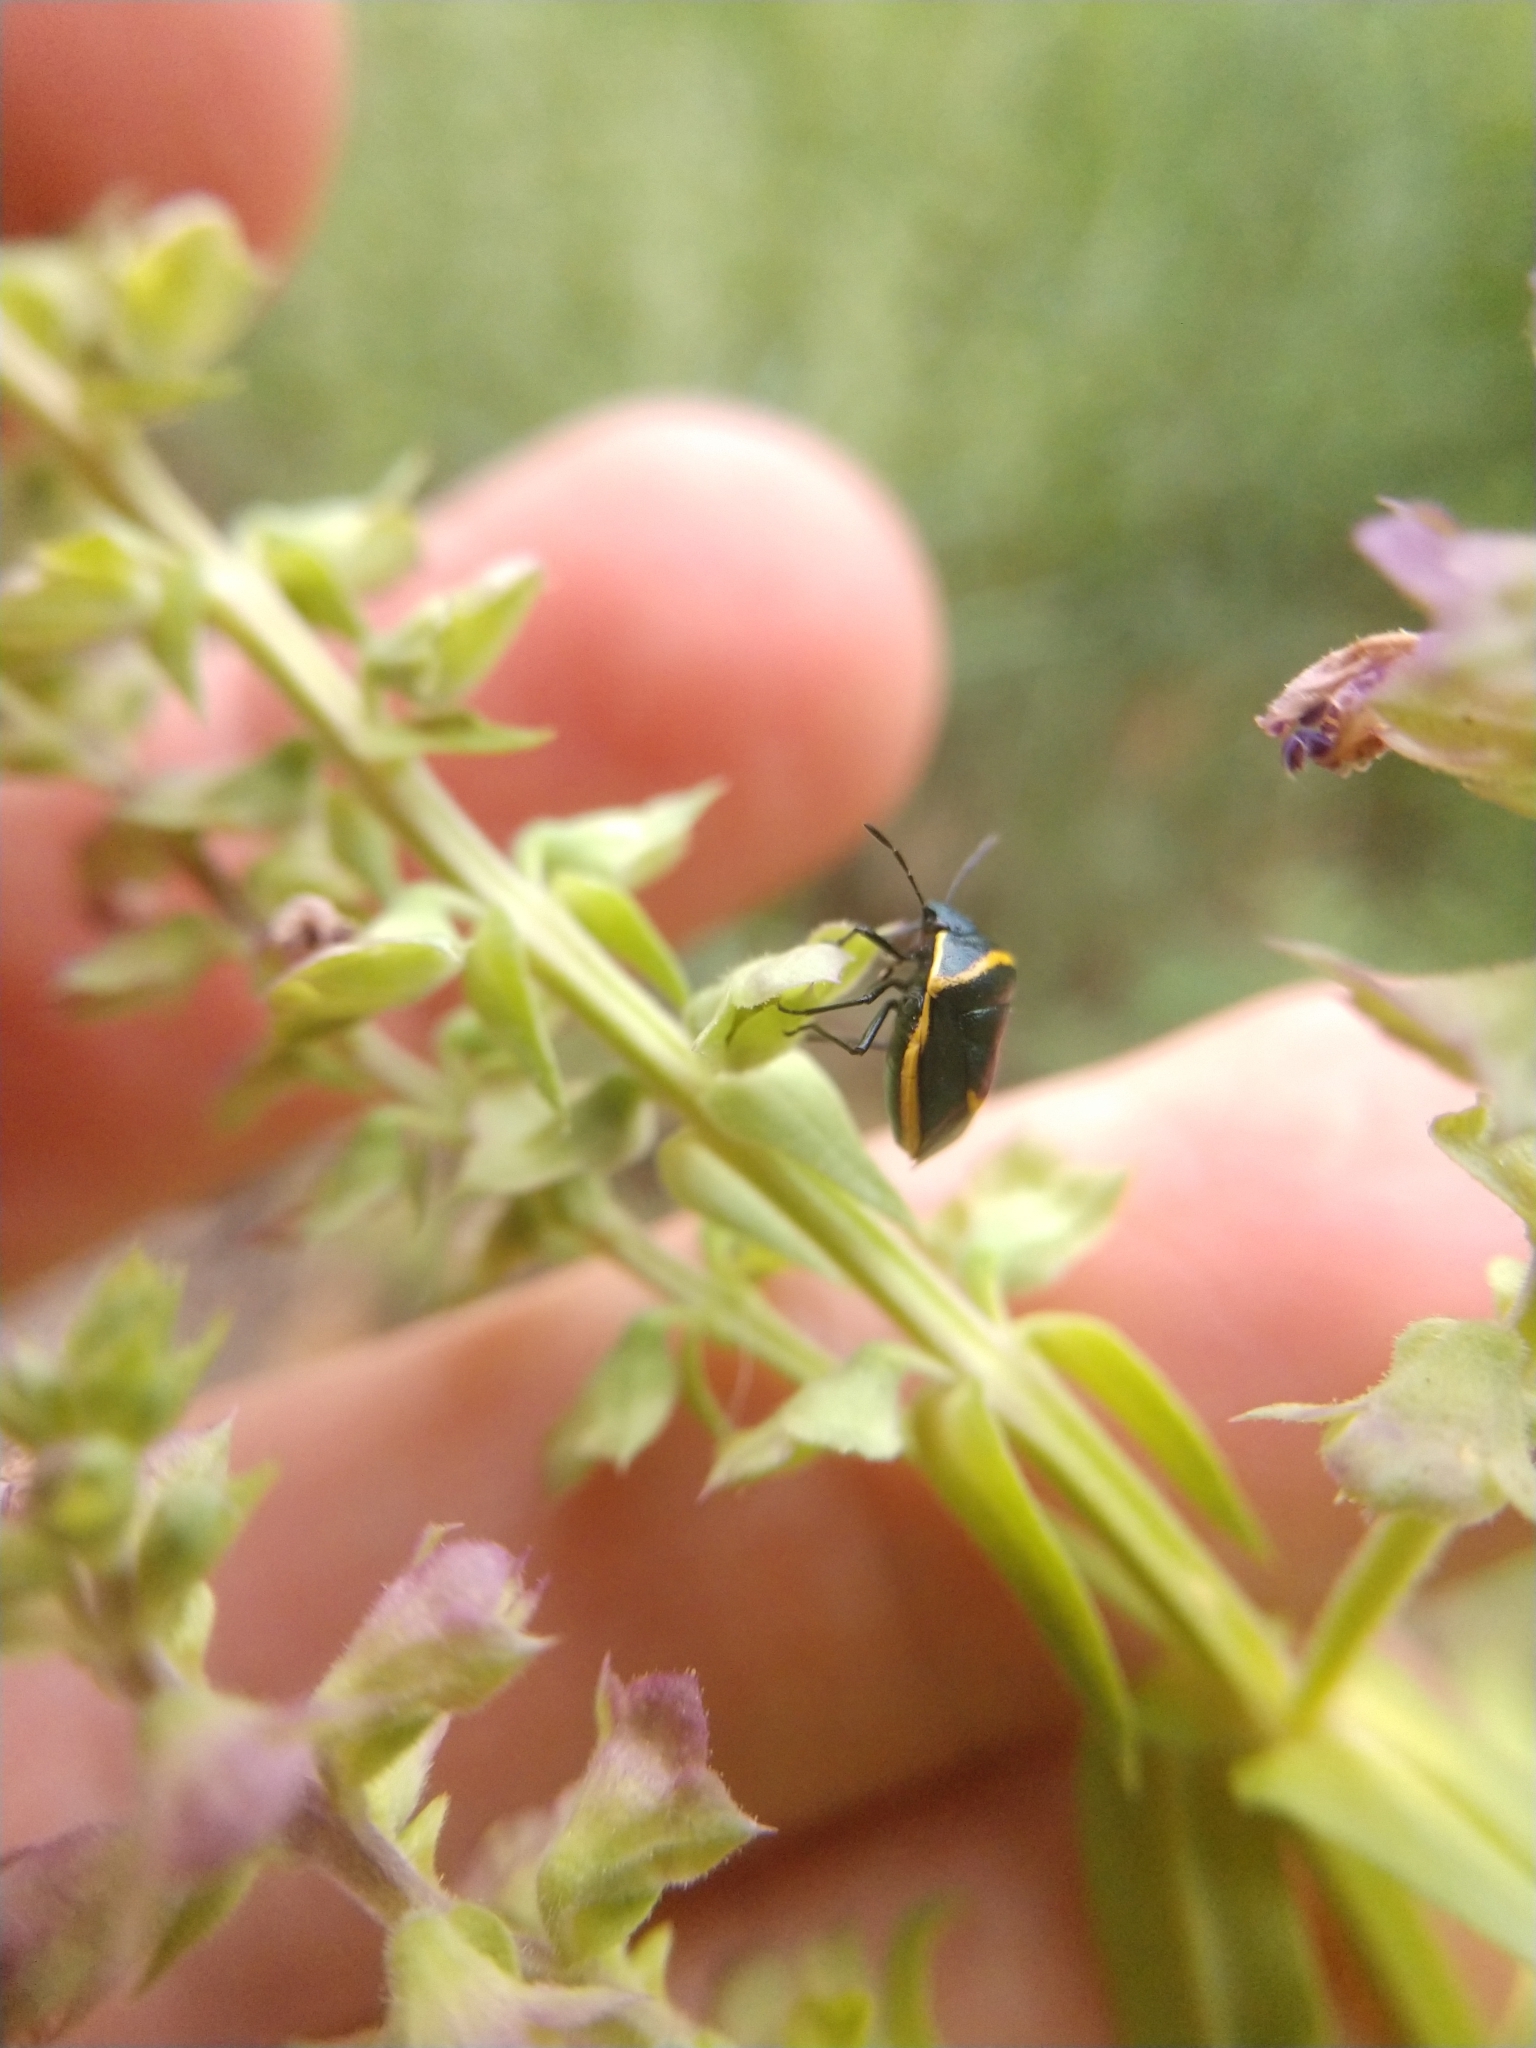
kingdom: Animalia
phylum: Arthropoda
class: Insecta
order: Hemiptera
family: Pentatomidae
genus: Cosmopepla
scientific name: Cosmopepla decorata
